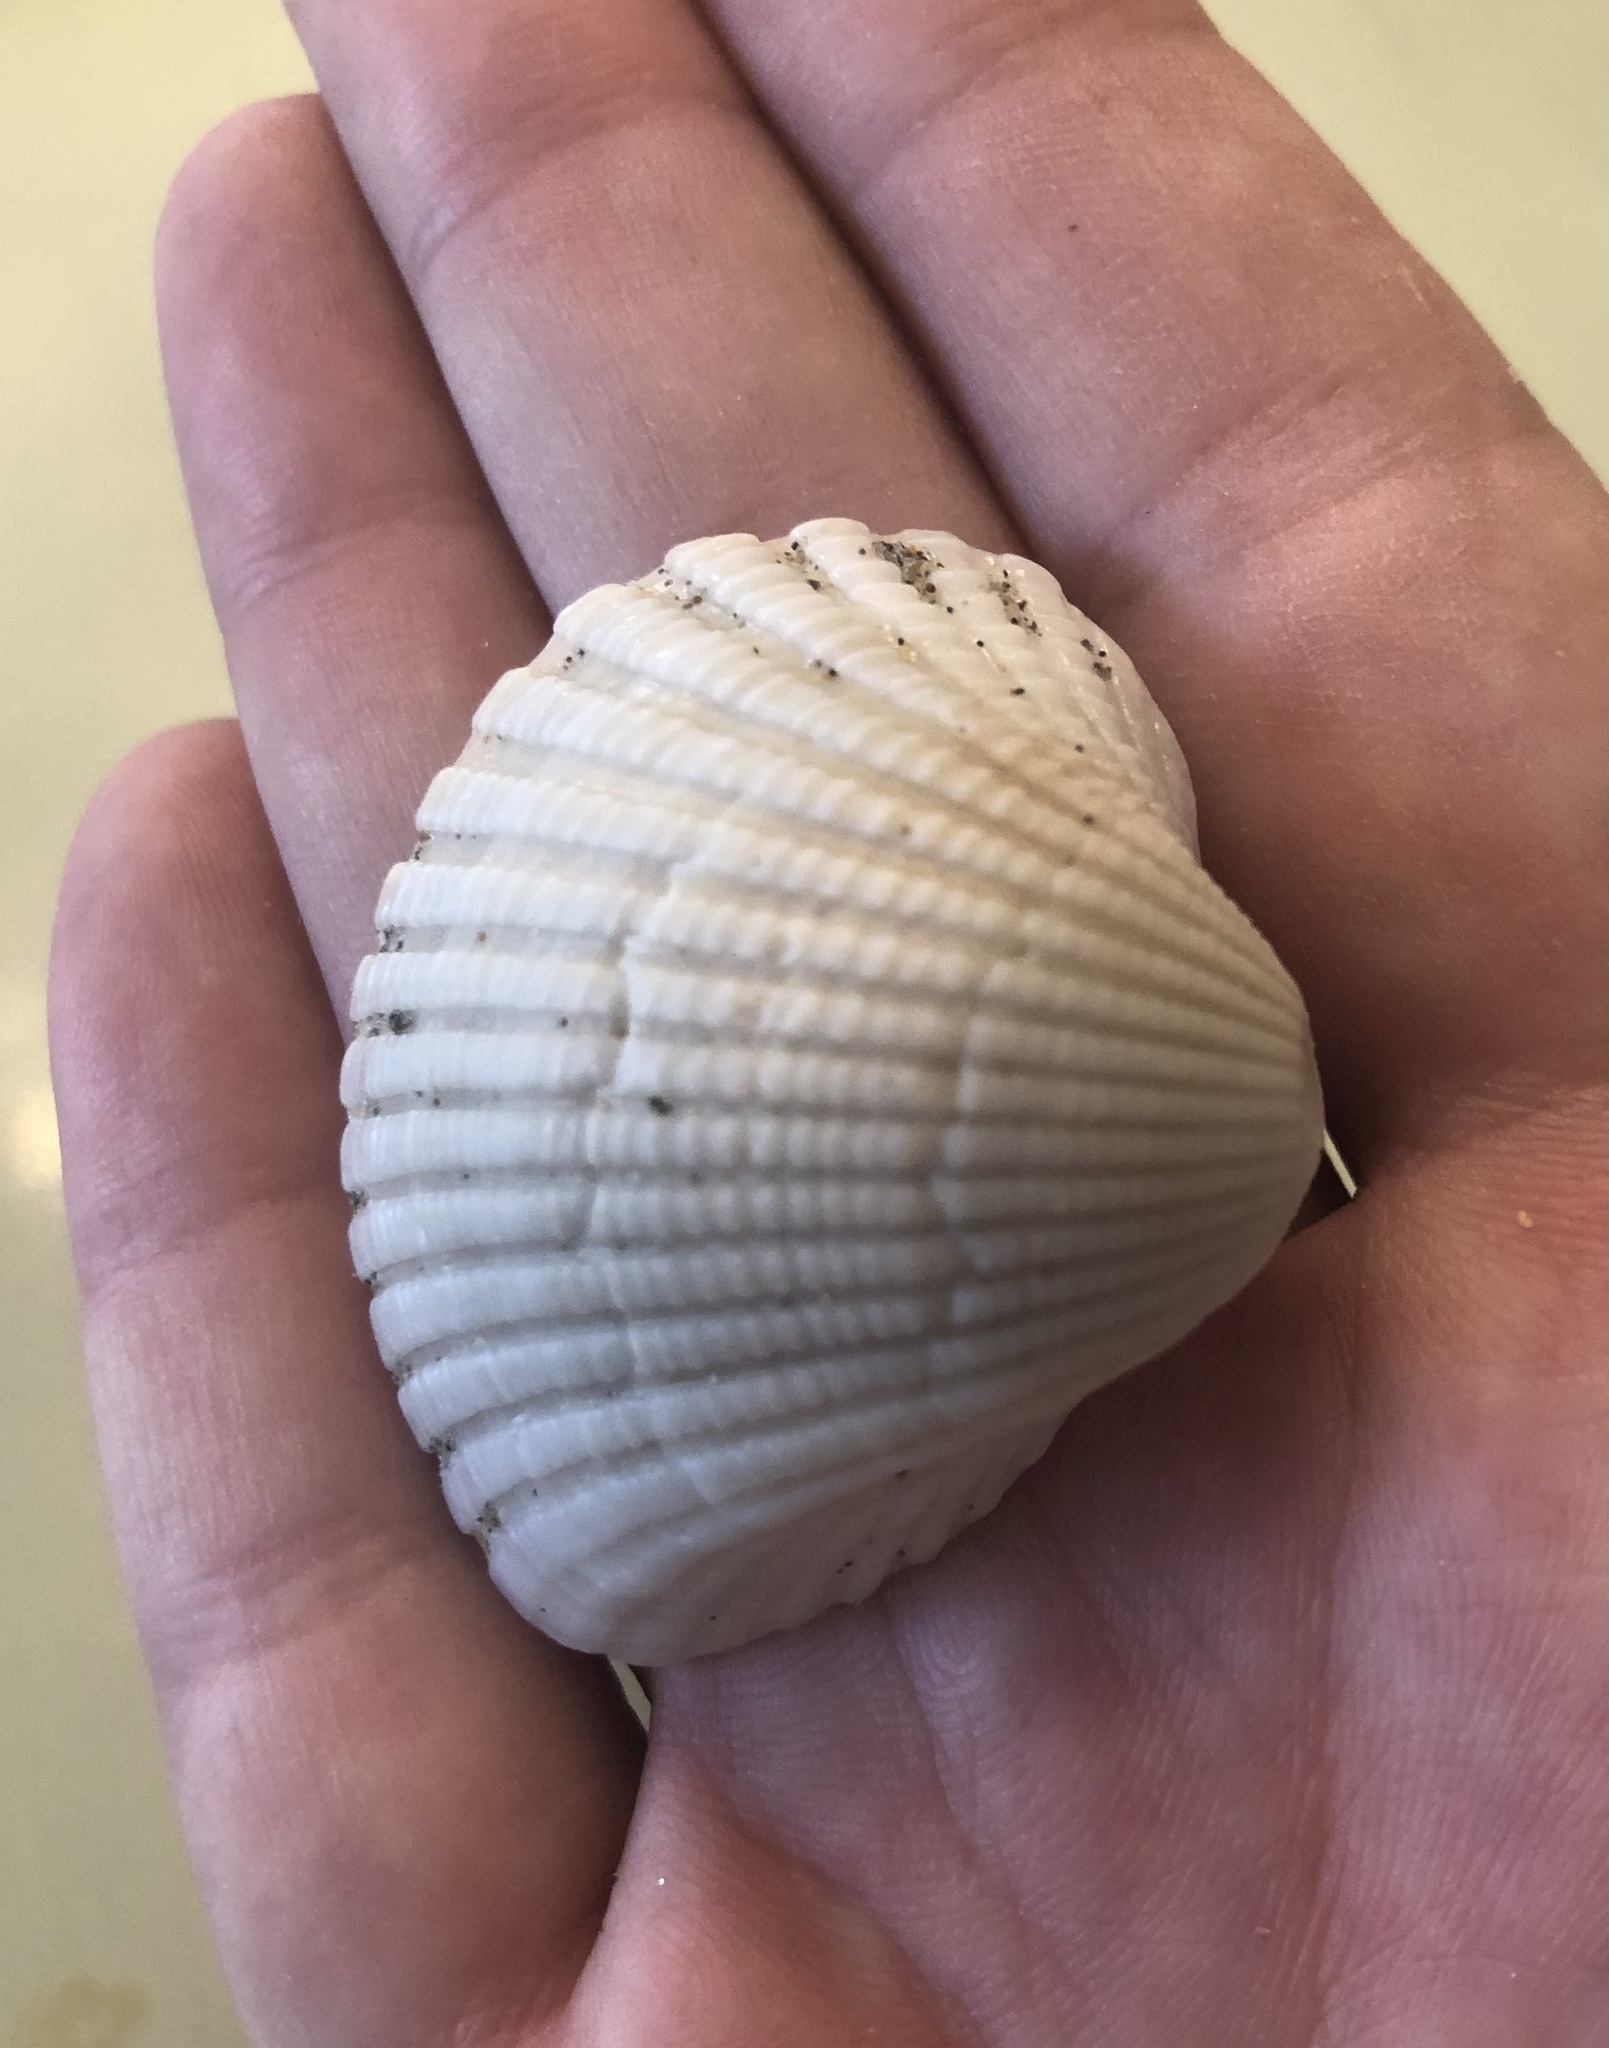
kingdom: Animalia
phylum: Mollusca
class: Bivalvia
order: Arcida
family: Arcidae
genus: Anadara
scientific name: Anadara brasiliana
